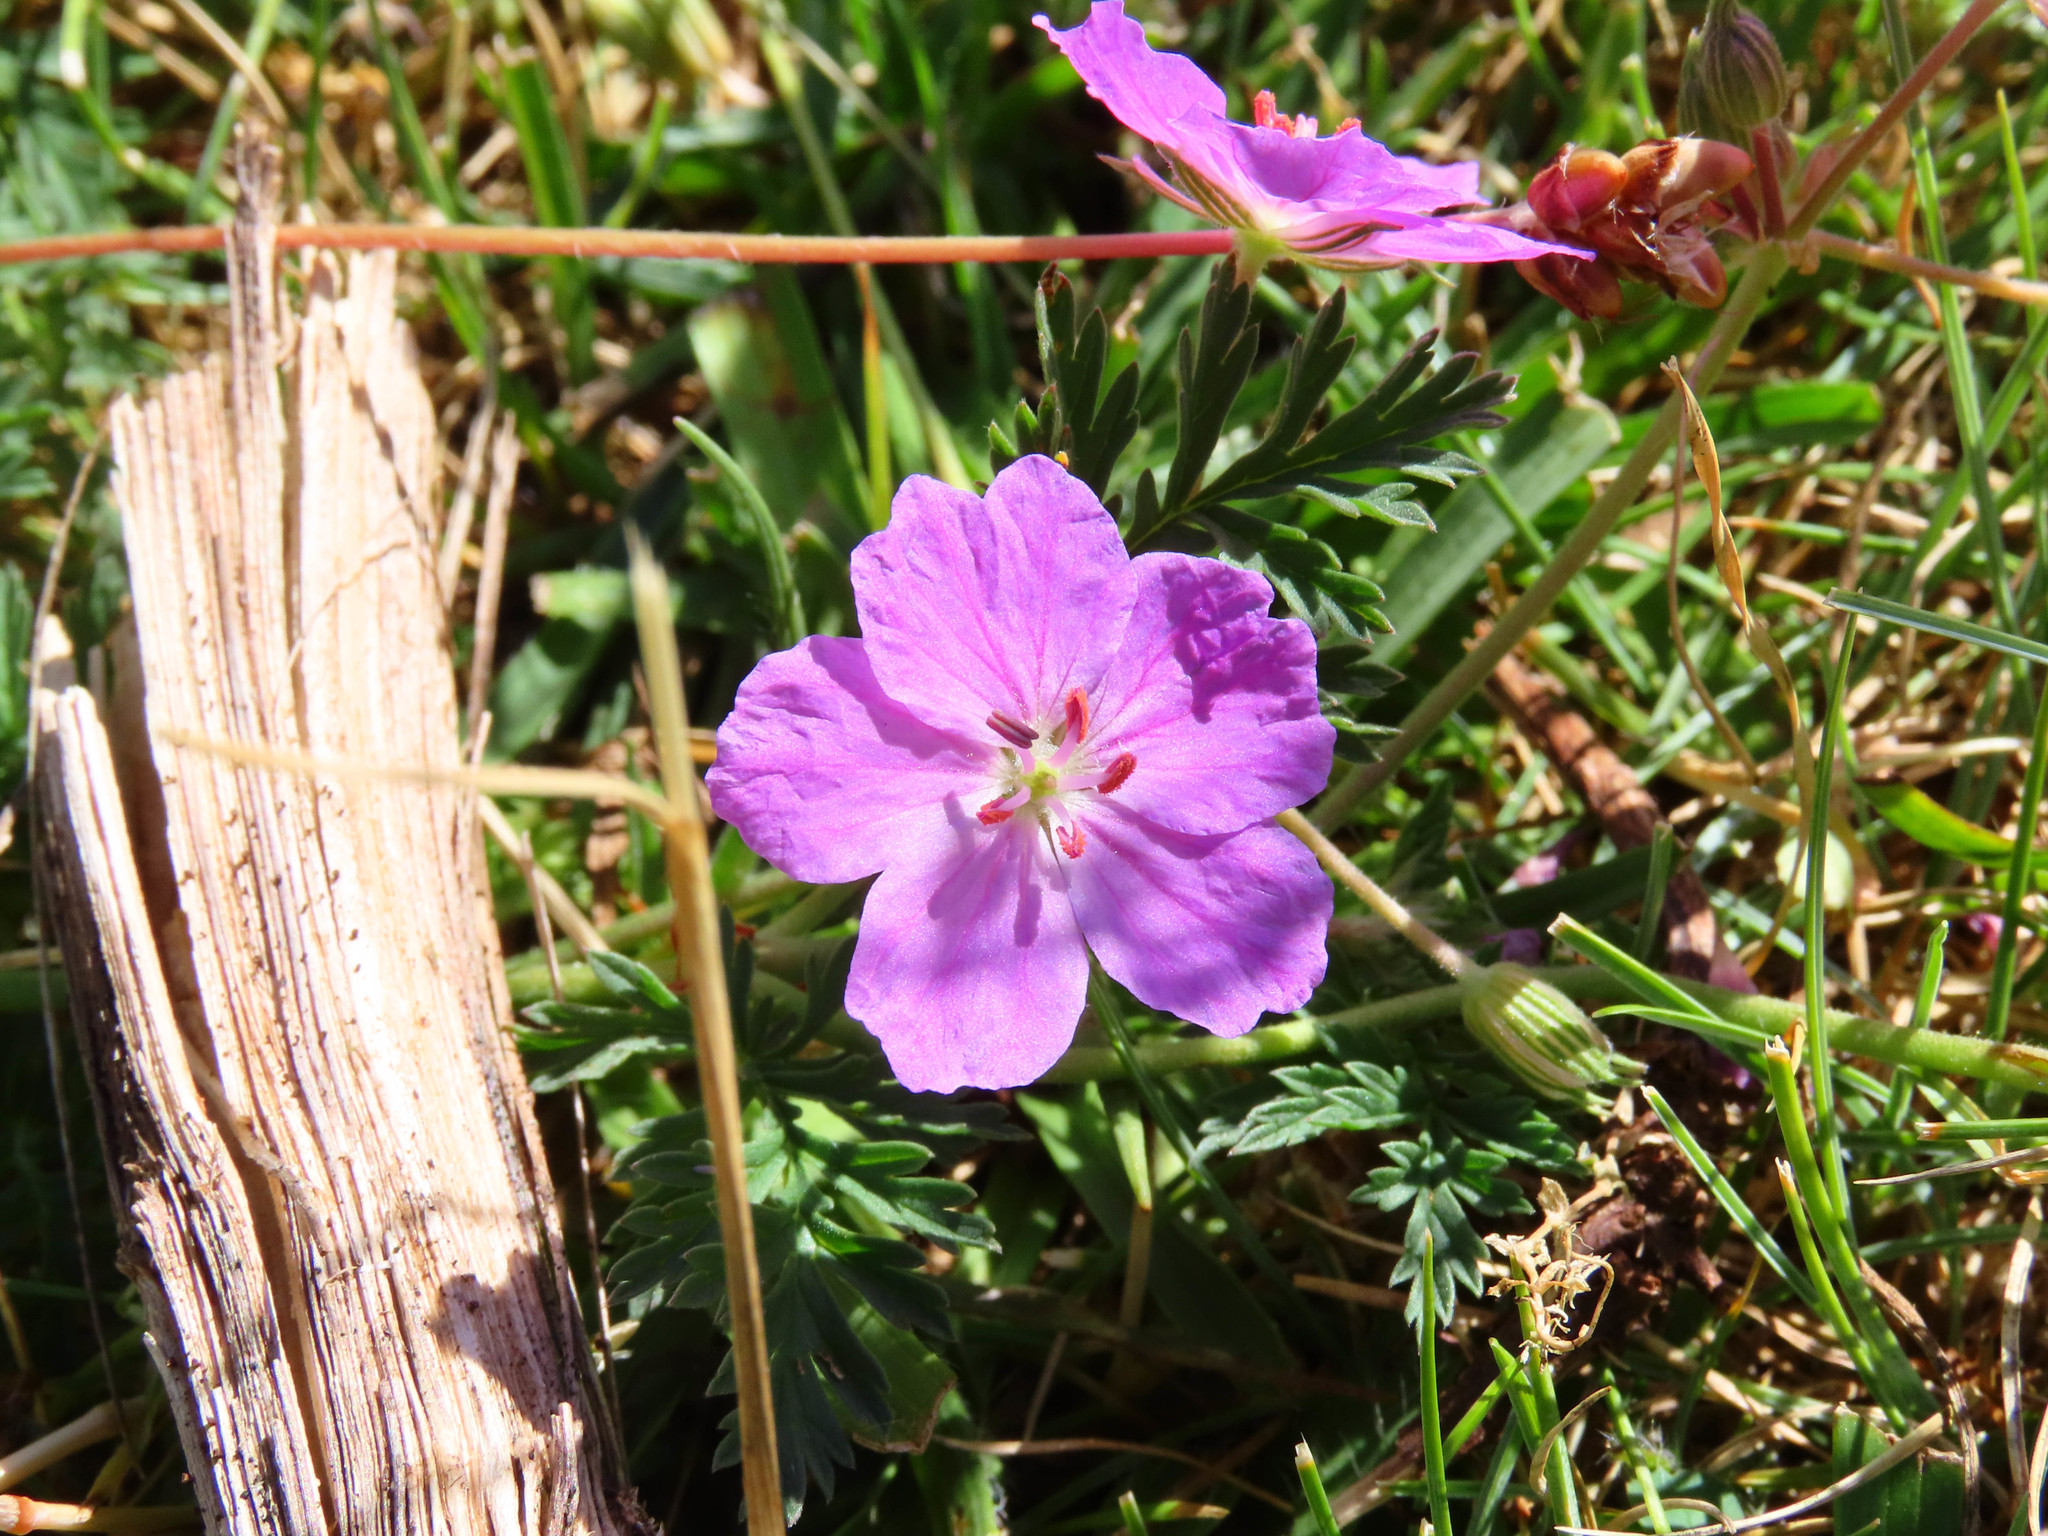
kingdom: Plantae
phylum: Tracheophyta
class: Magnoliopsida
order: Geraniales
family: Geraniaceae
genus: Erodium
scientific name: Erodium alpinum
